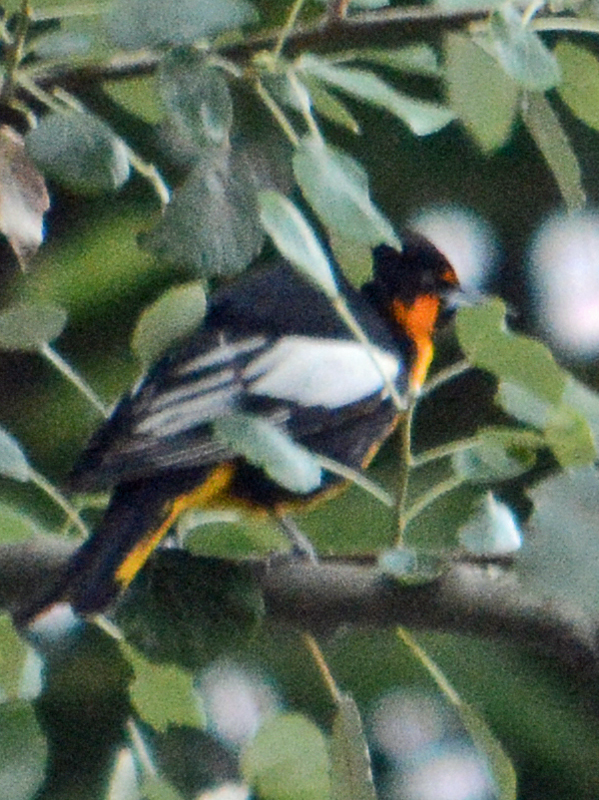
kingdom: Animalia
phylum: Chordata
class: Aves
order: Passeriformes
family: Icteridae
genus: Icterus
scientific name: Icterus abeillei
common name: Black-backed oriole
